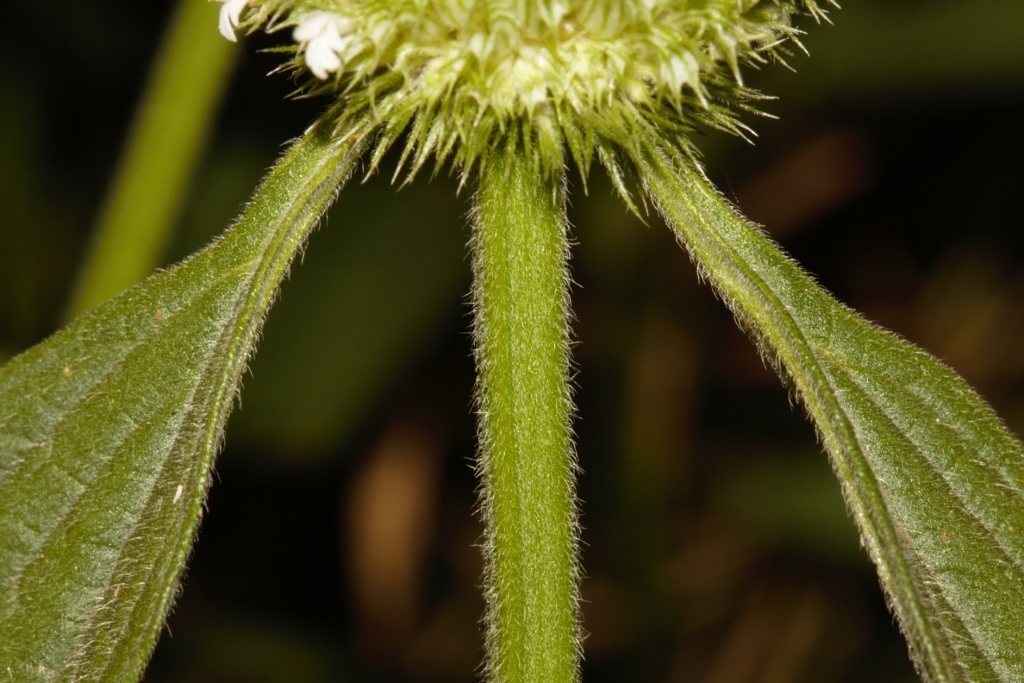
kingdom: Plantae
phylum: Tracheophyta
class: Magnoliopsida
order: Lamiales
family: Lamiaceae
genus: Leucas
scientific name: Leucas martinicensis
